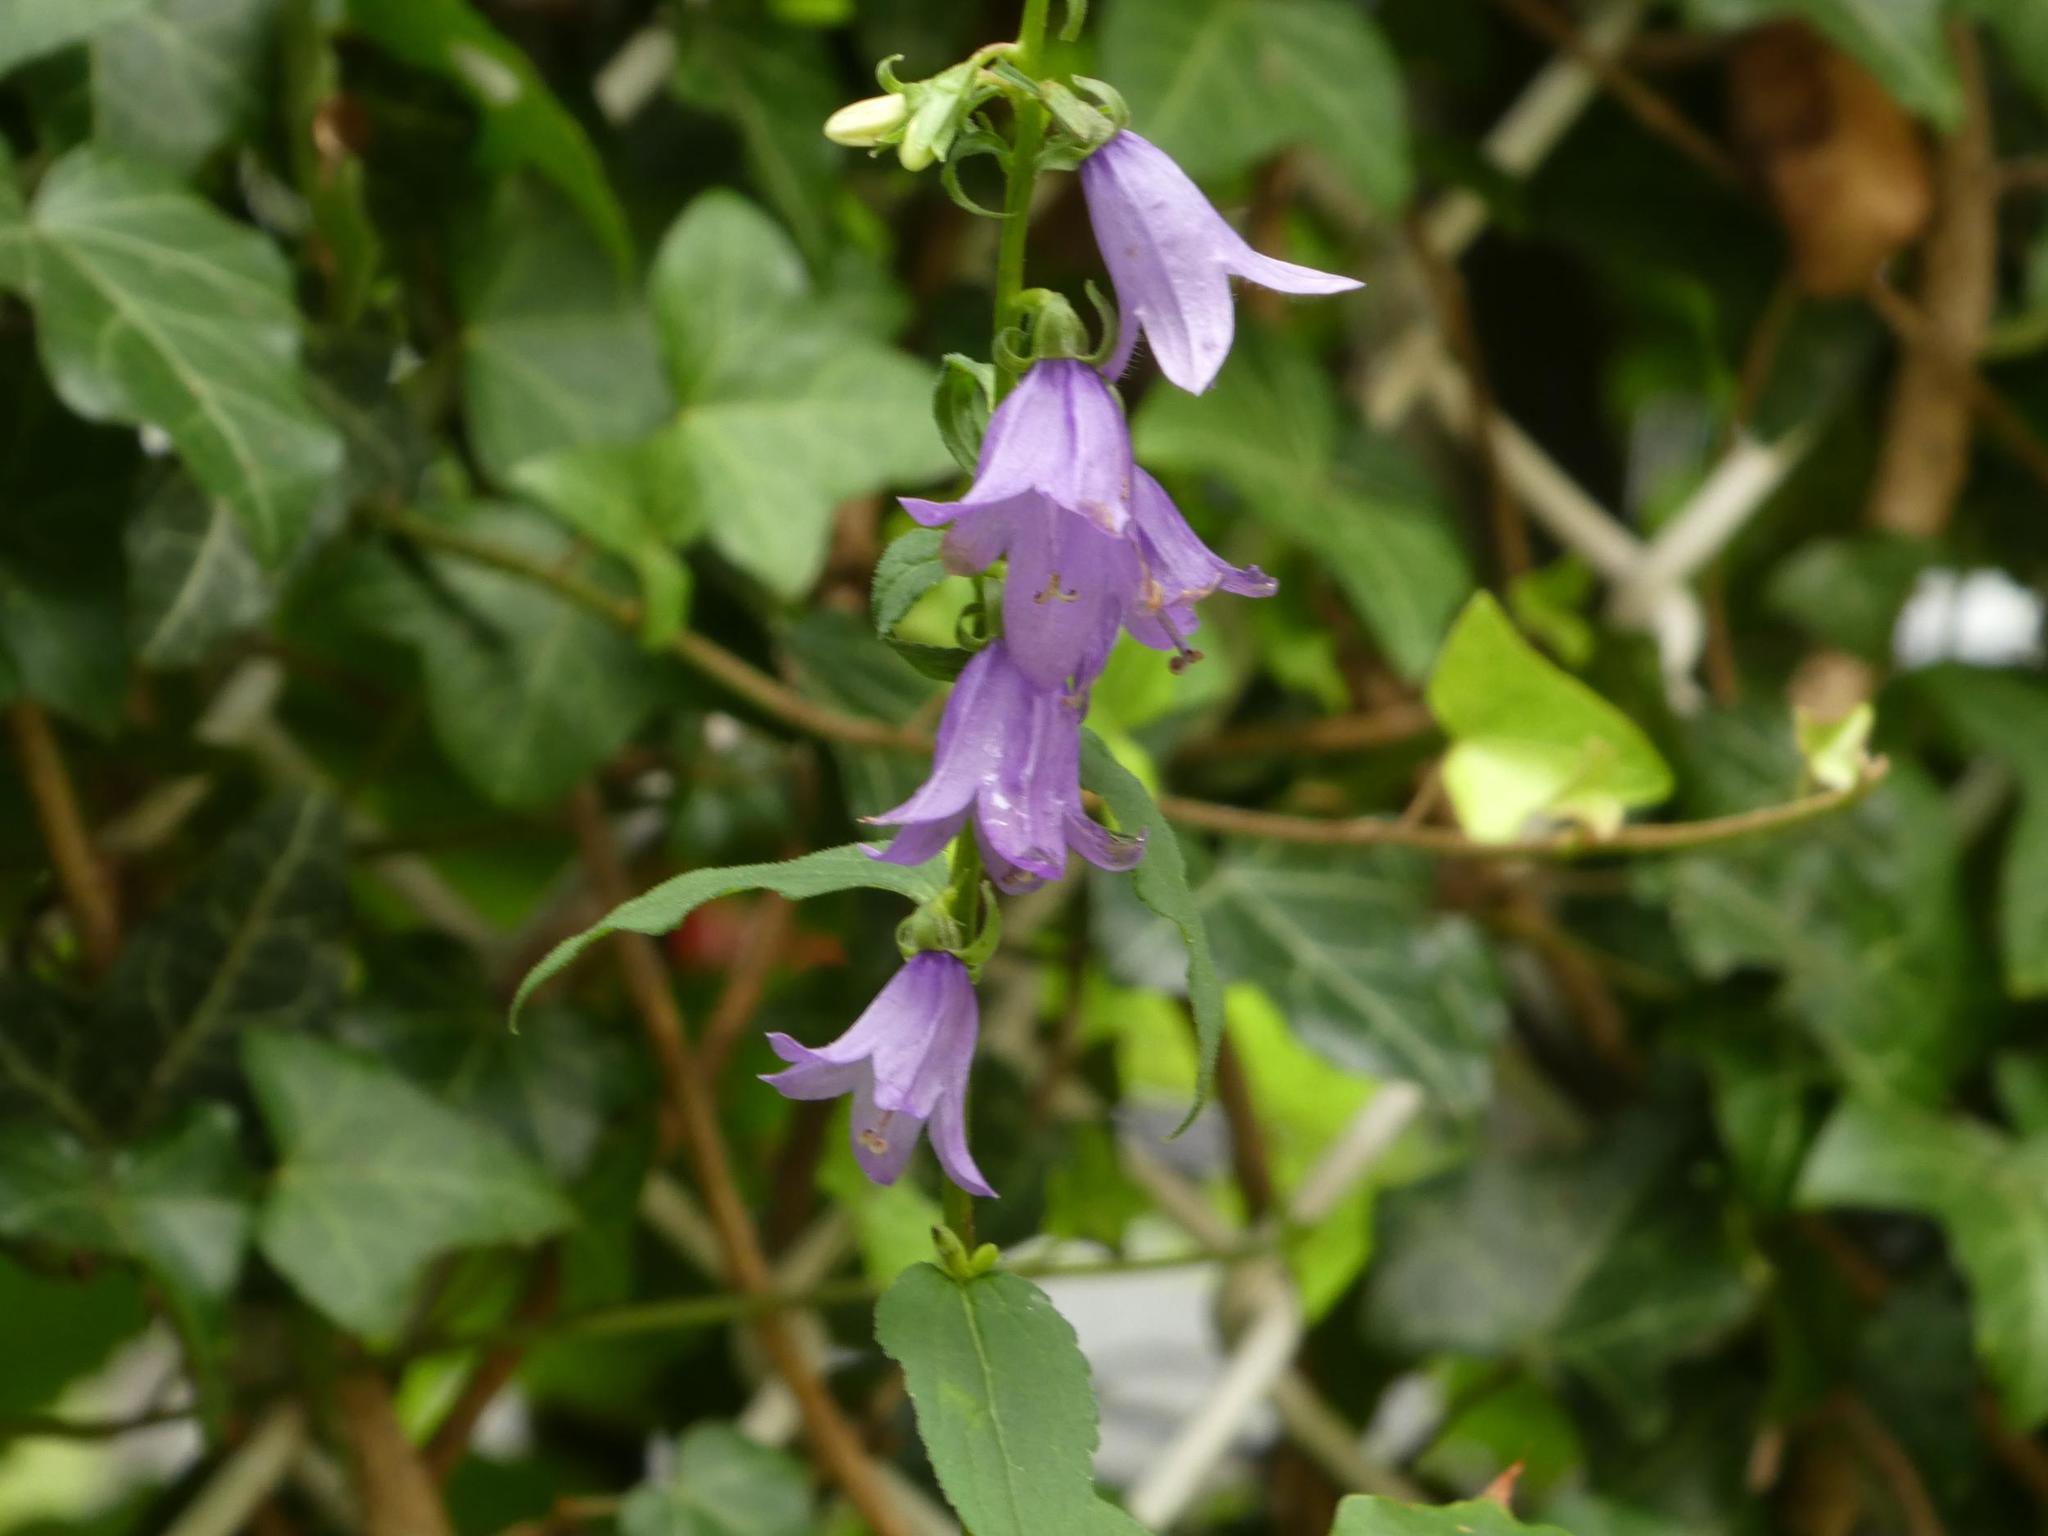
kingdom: Plantae
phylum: Tracheophyta
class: Magnoliopsida
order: Asterales
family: Campanulaceae
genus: Campanula
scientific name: Campanula rapunculoides
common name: Creeping bellflower
